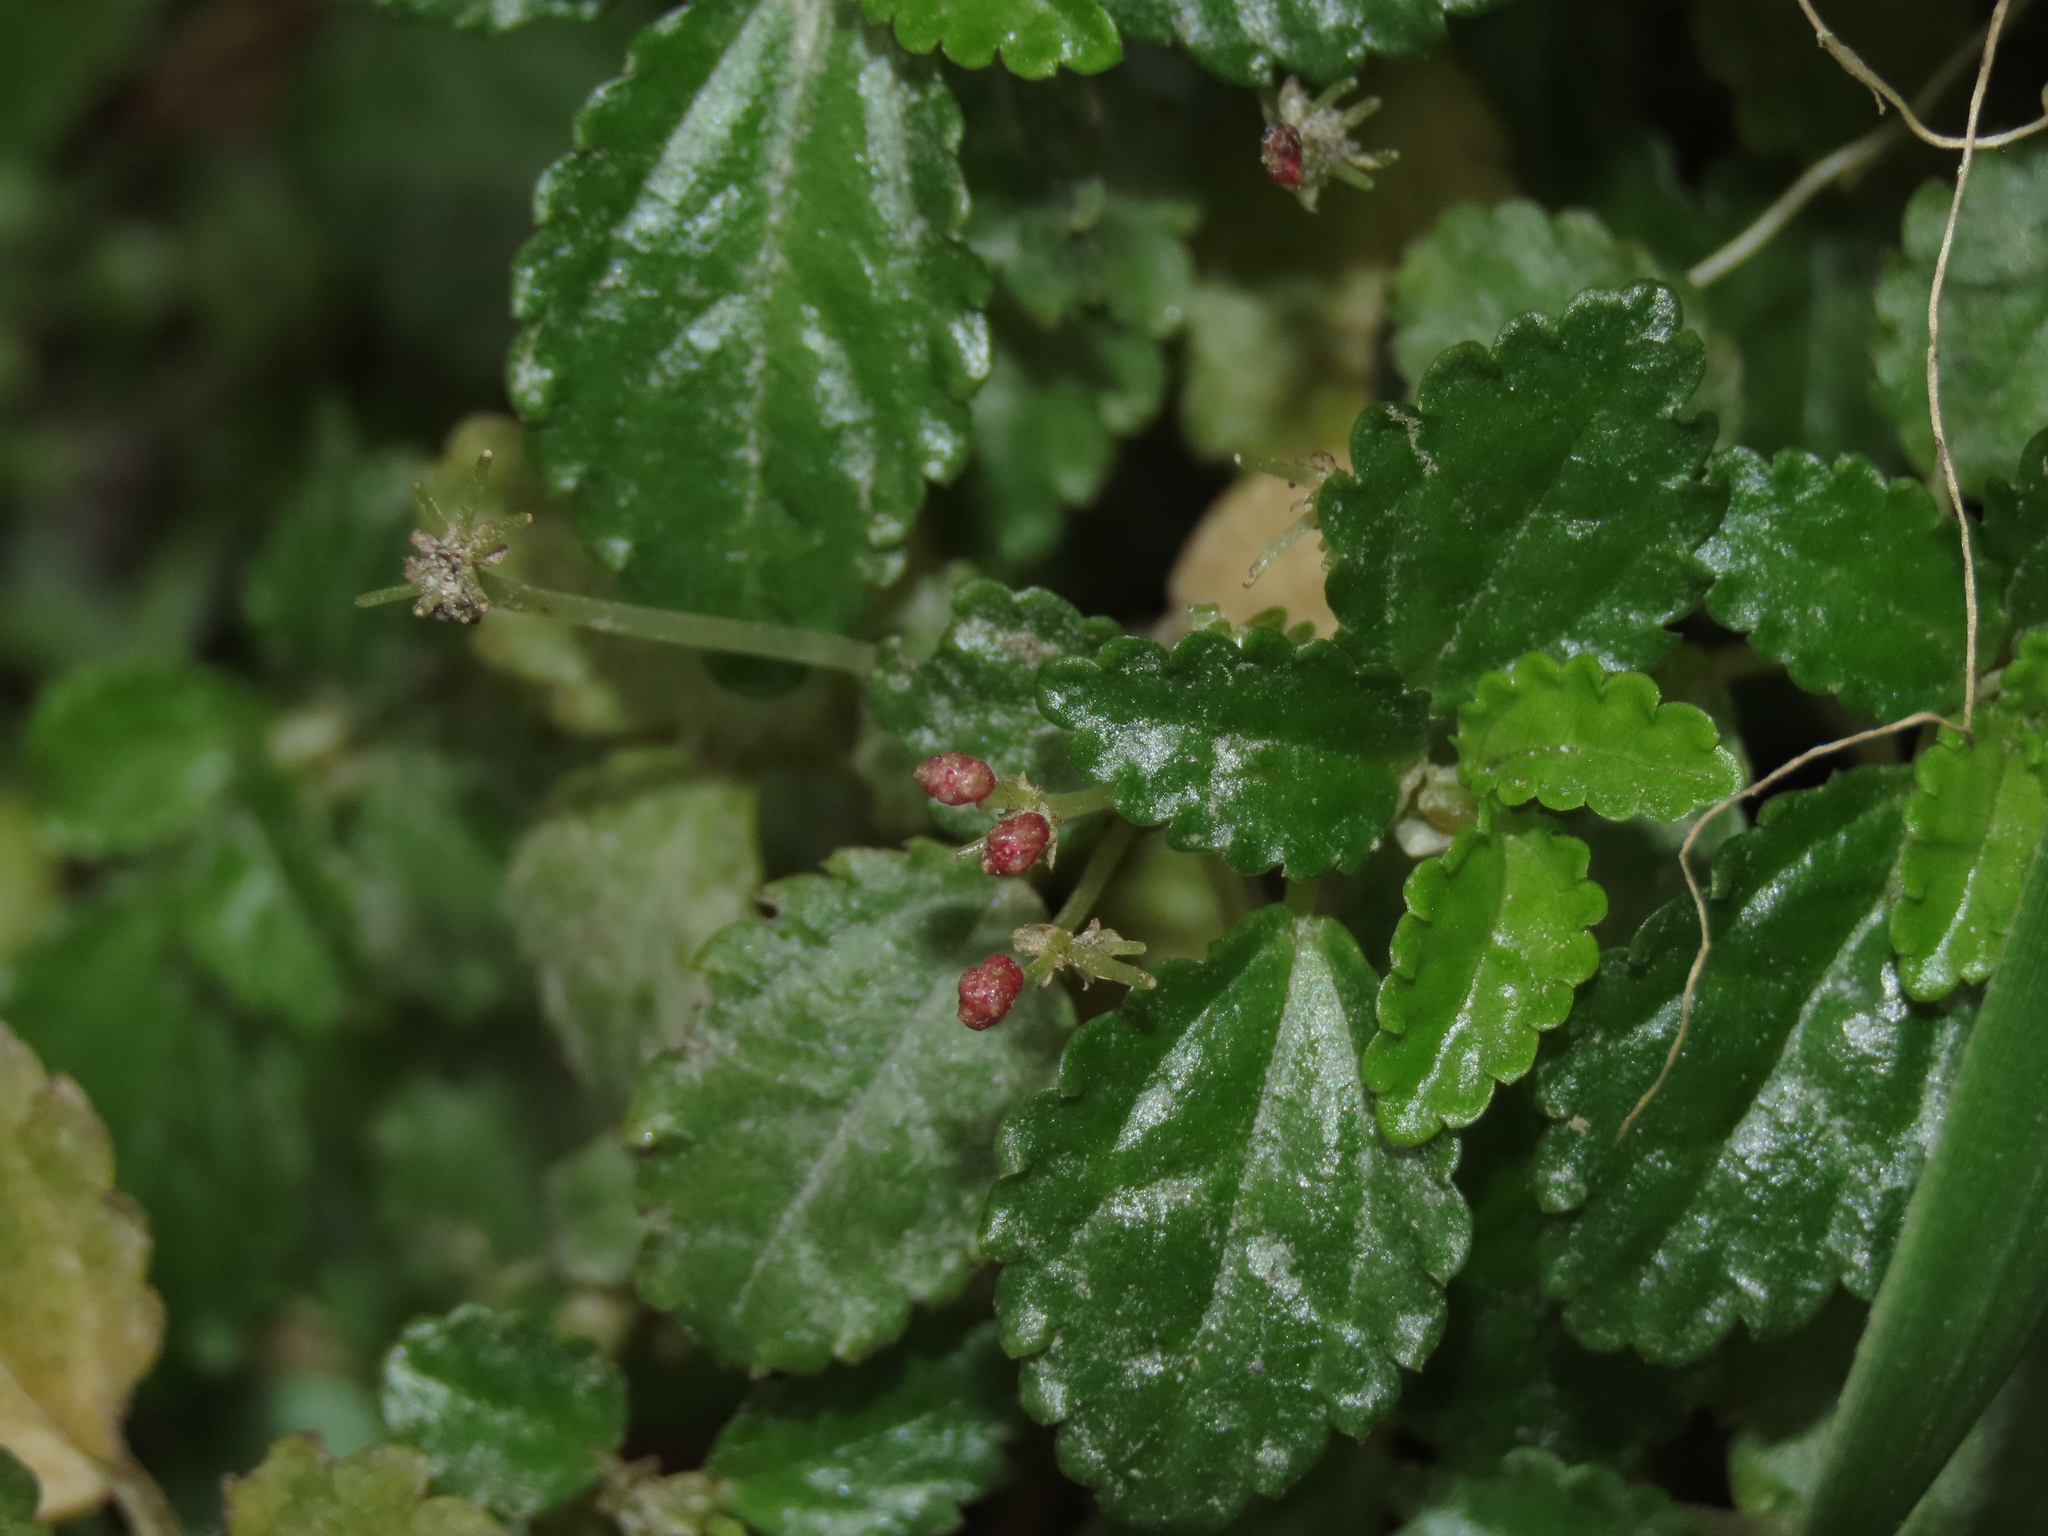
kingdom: Plantae
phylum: Tracheophyta
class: Magnoliopsida
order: Rosales
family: Urticaceae
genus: Pilea
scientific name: Pilea elliptica
